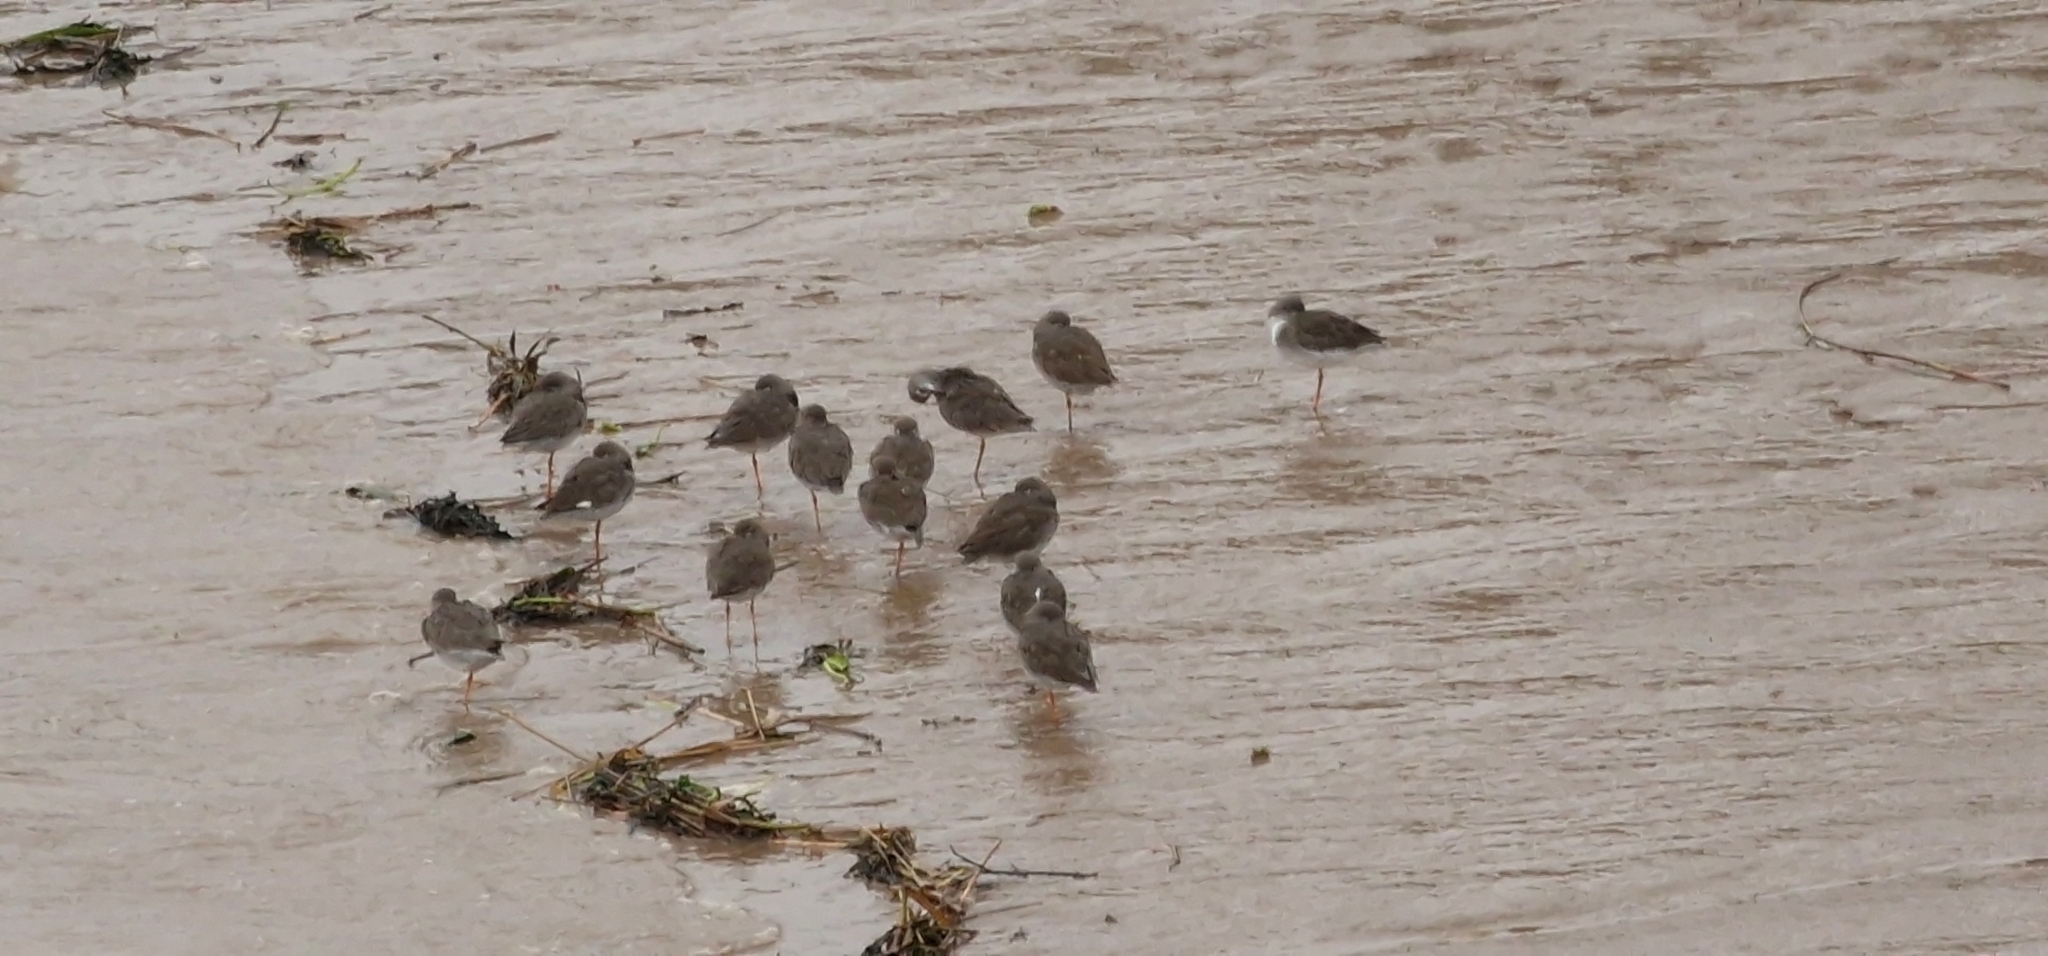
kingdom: Animalia
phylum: Chordata
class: Aves
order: Charadriiformes
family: Scolopacidae
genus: Tringa
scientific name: Tringa totanus
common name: Common redshank
